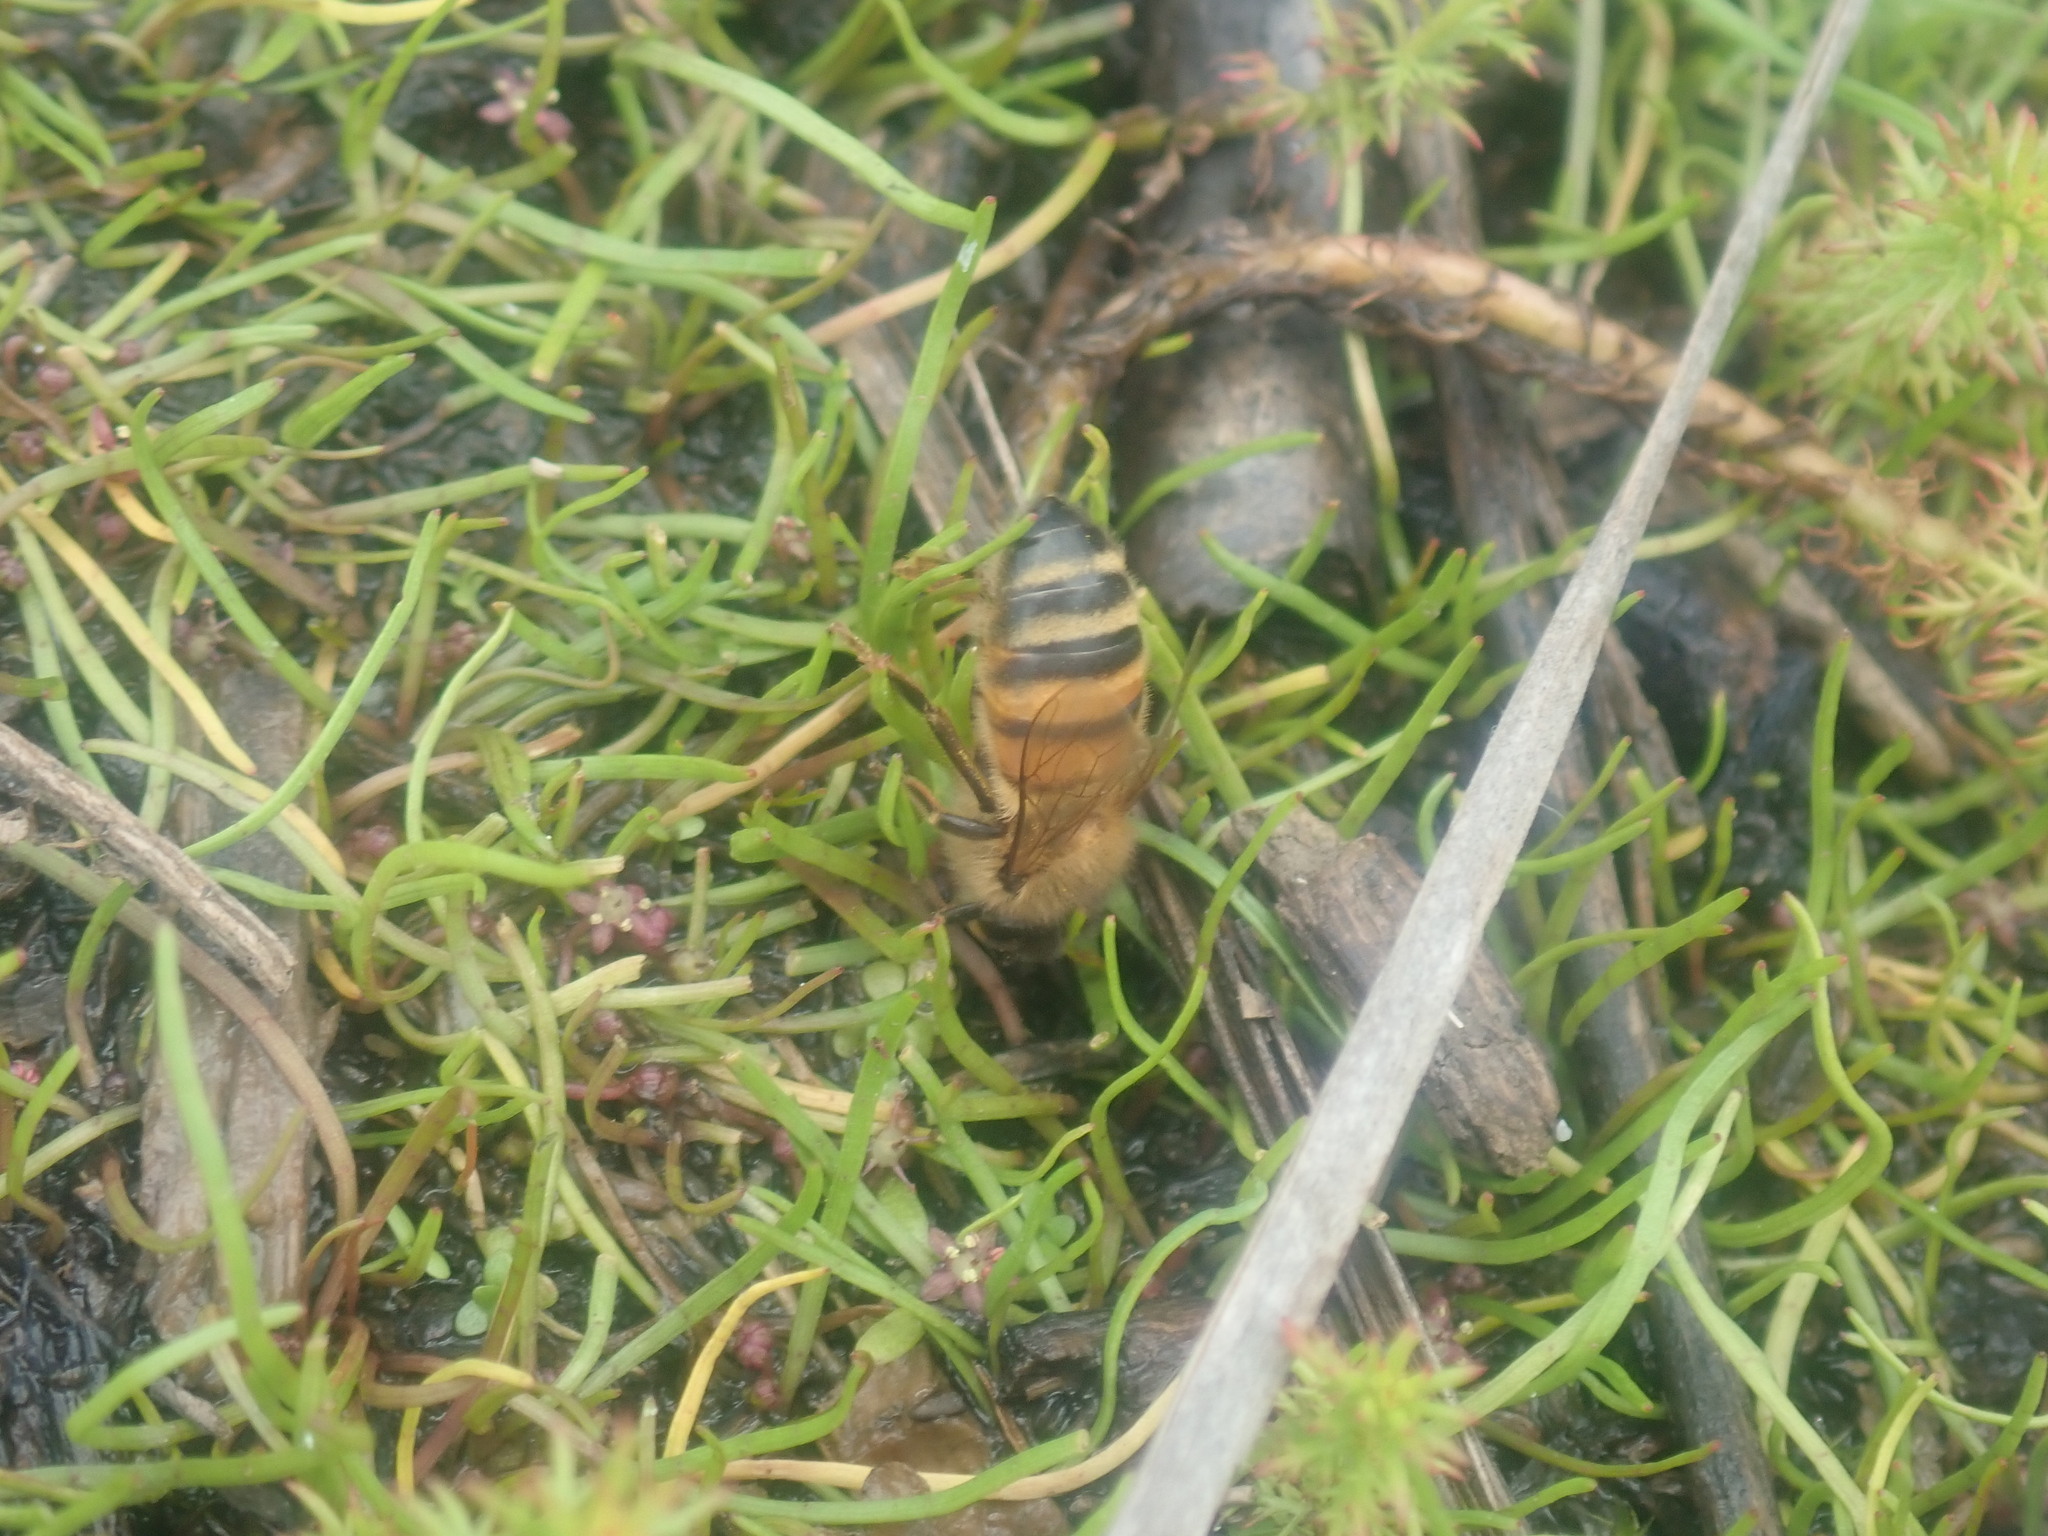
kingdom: Animalia
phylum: Arthropoda
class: Insecta
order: Hymenoptera
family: Apidae
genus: Apis
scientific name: Apis mellifera
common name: Honey bee
